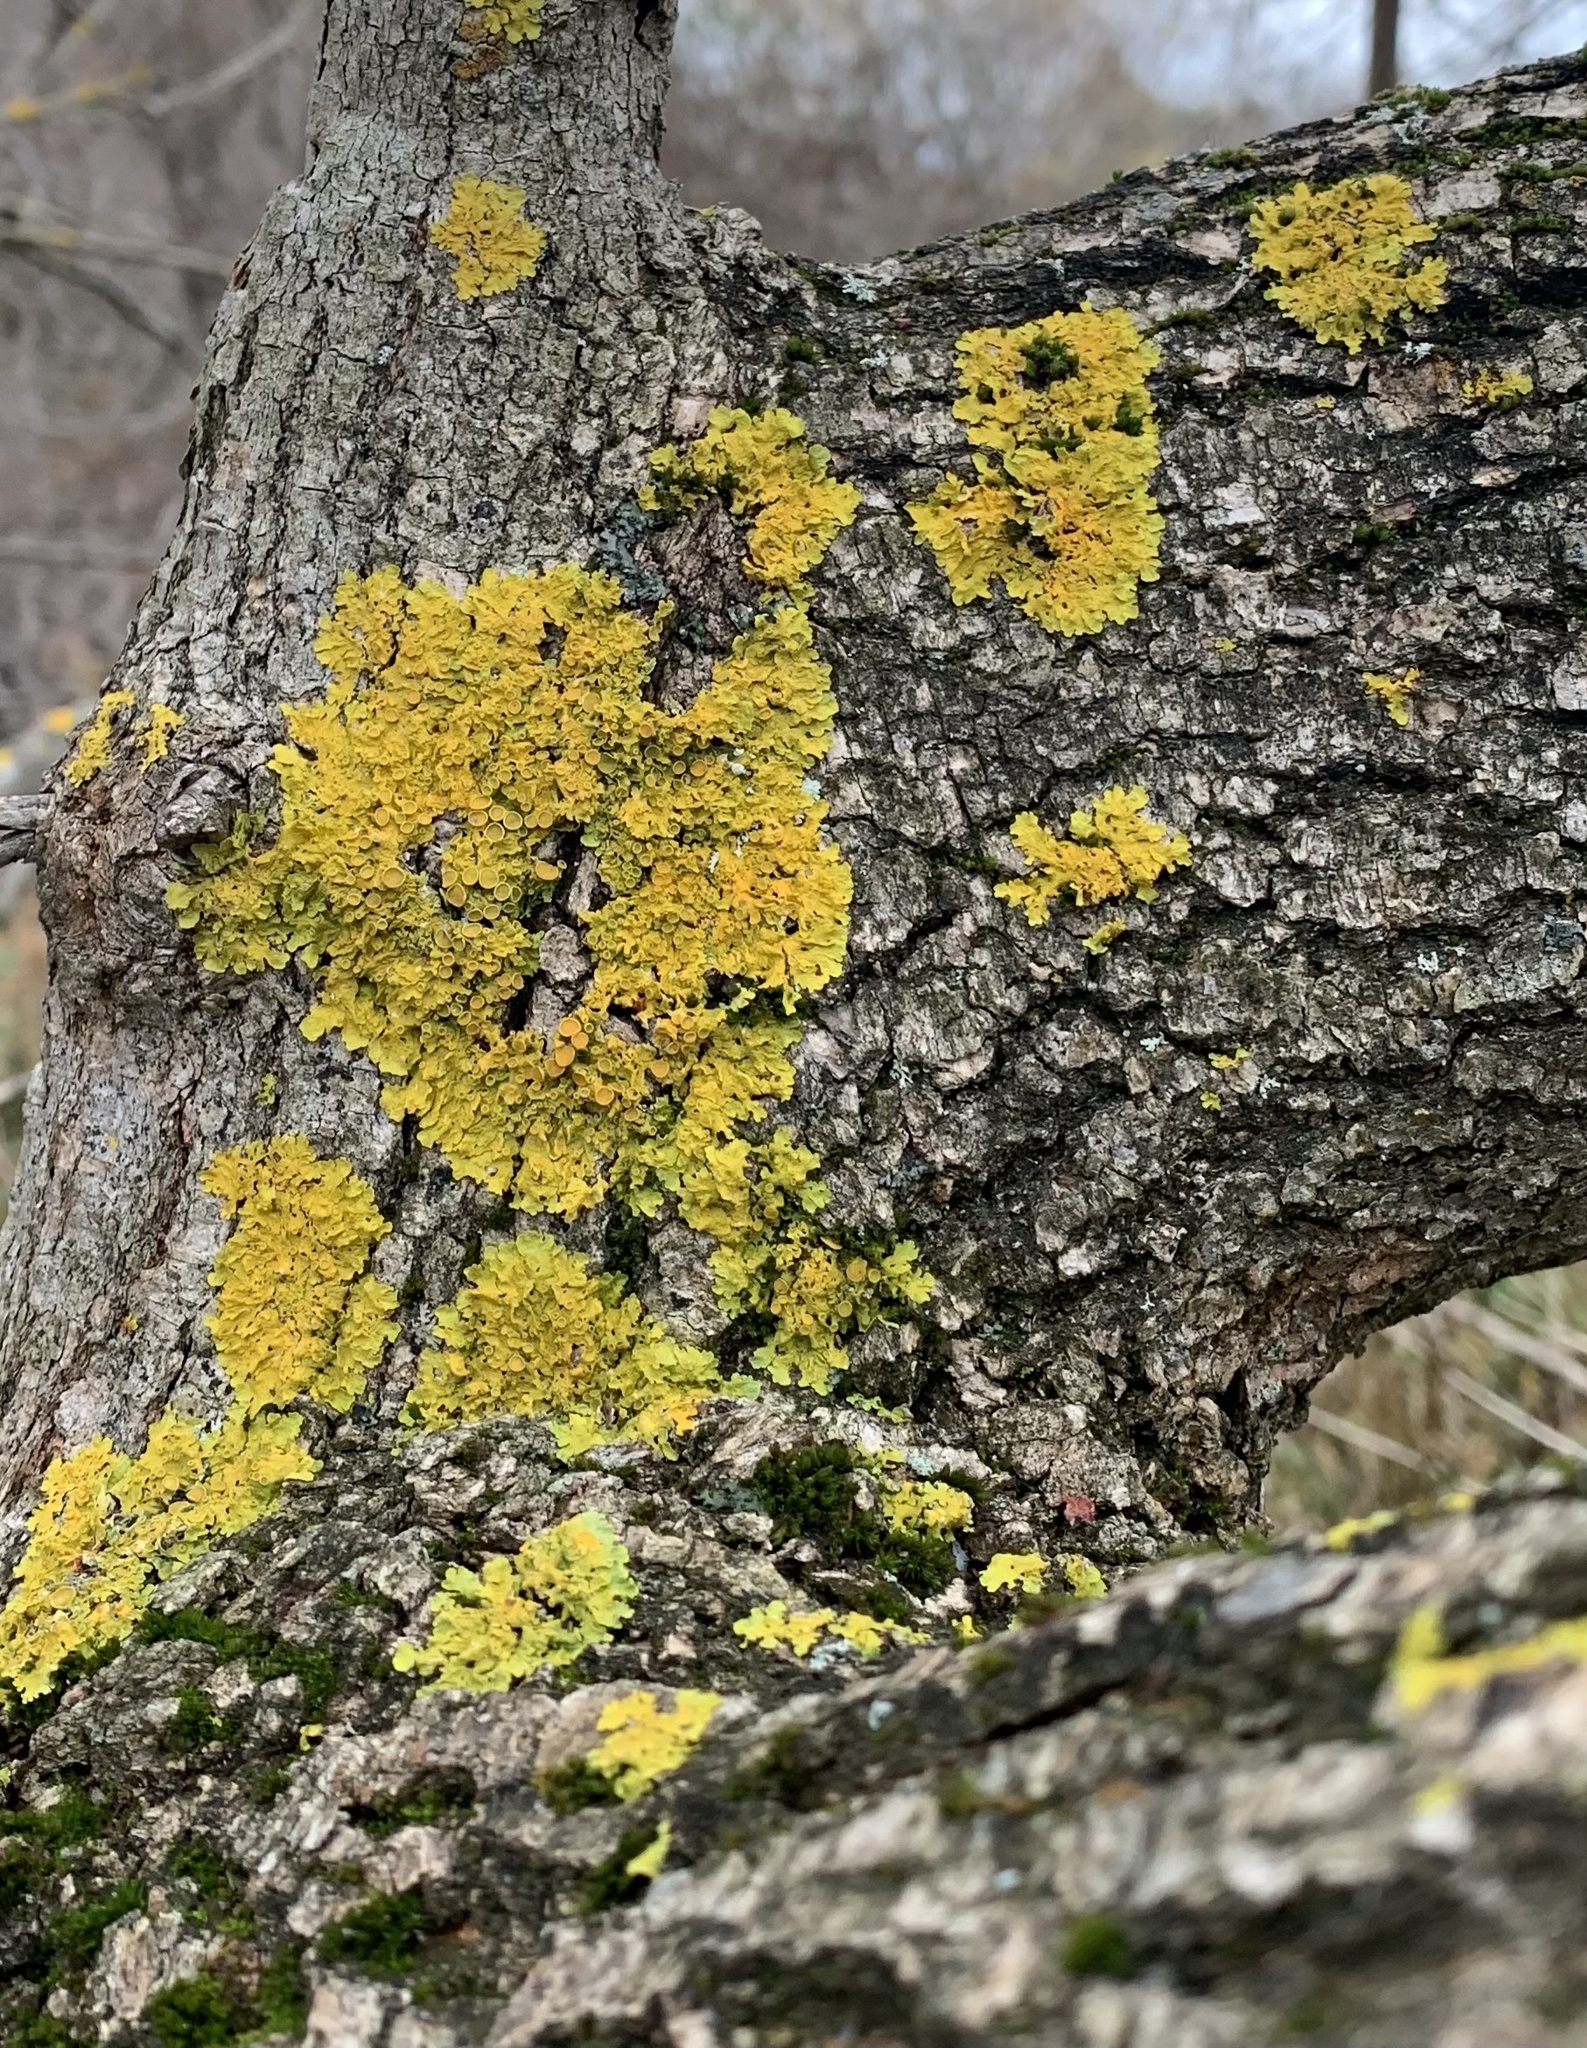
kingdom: Fungi
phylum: Ascomycota
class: Lecanoromycetes
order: Teloschistales
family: Teloschistaceae
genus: Xanthoria
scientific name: Xanthoria parietina
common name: Common orange lichen
